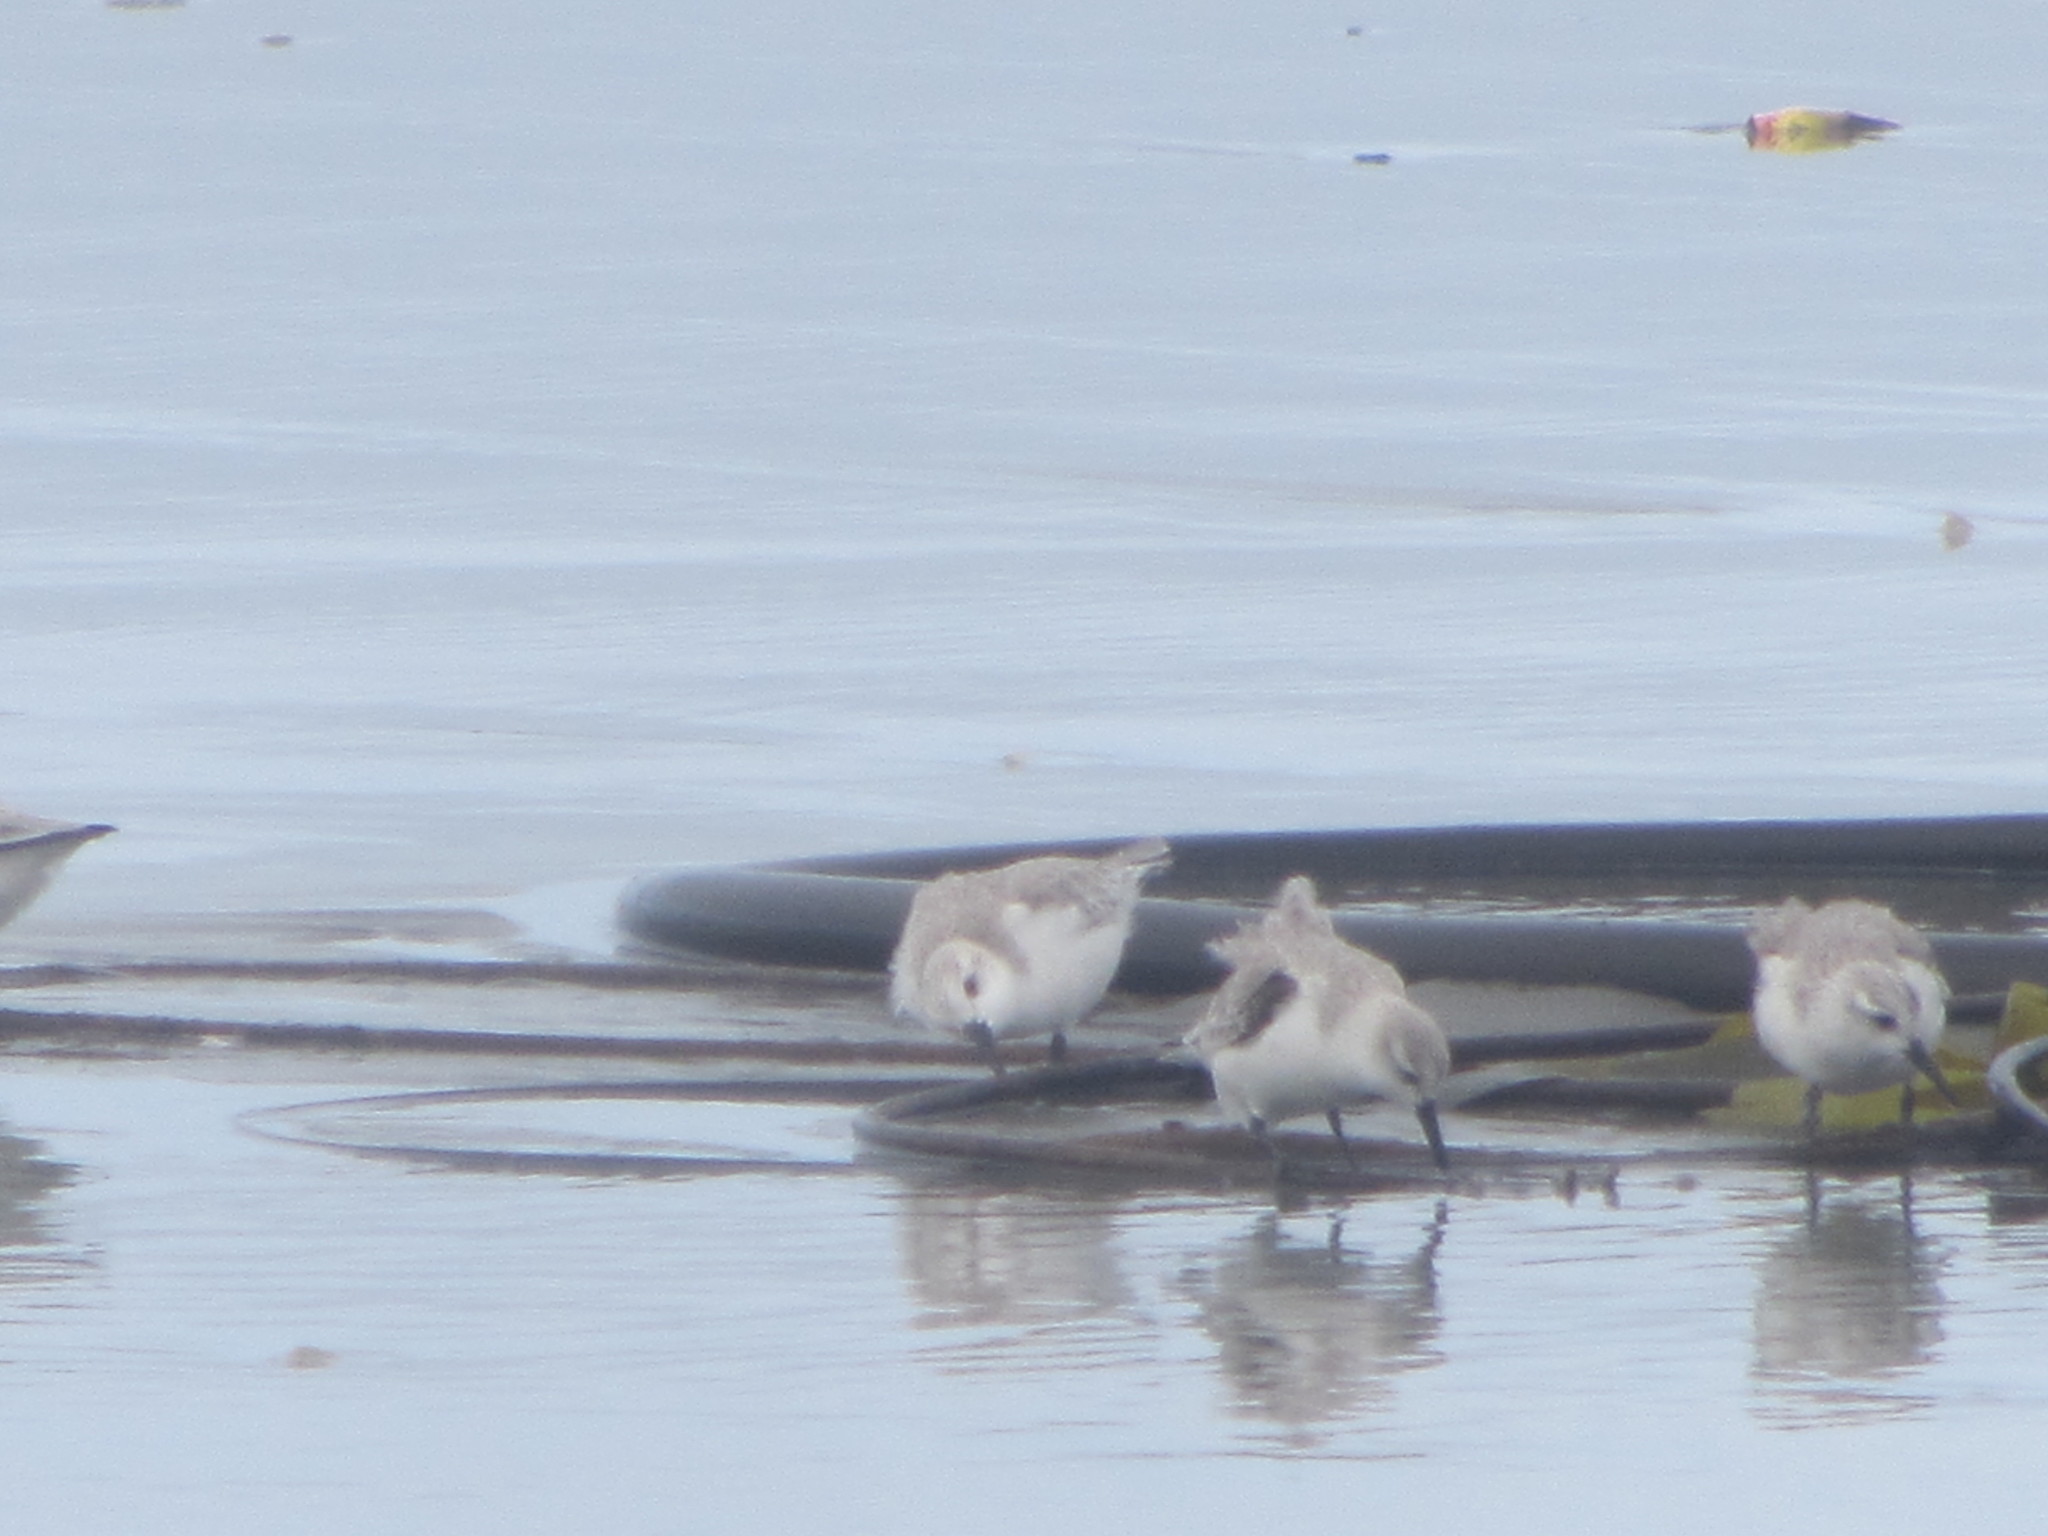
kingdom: Animalia
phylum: Chordata
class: Aves
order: Charadriiformes
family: Scolopacidae
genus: Calidris
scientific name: Calidris alba
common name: Sanderling
